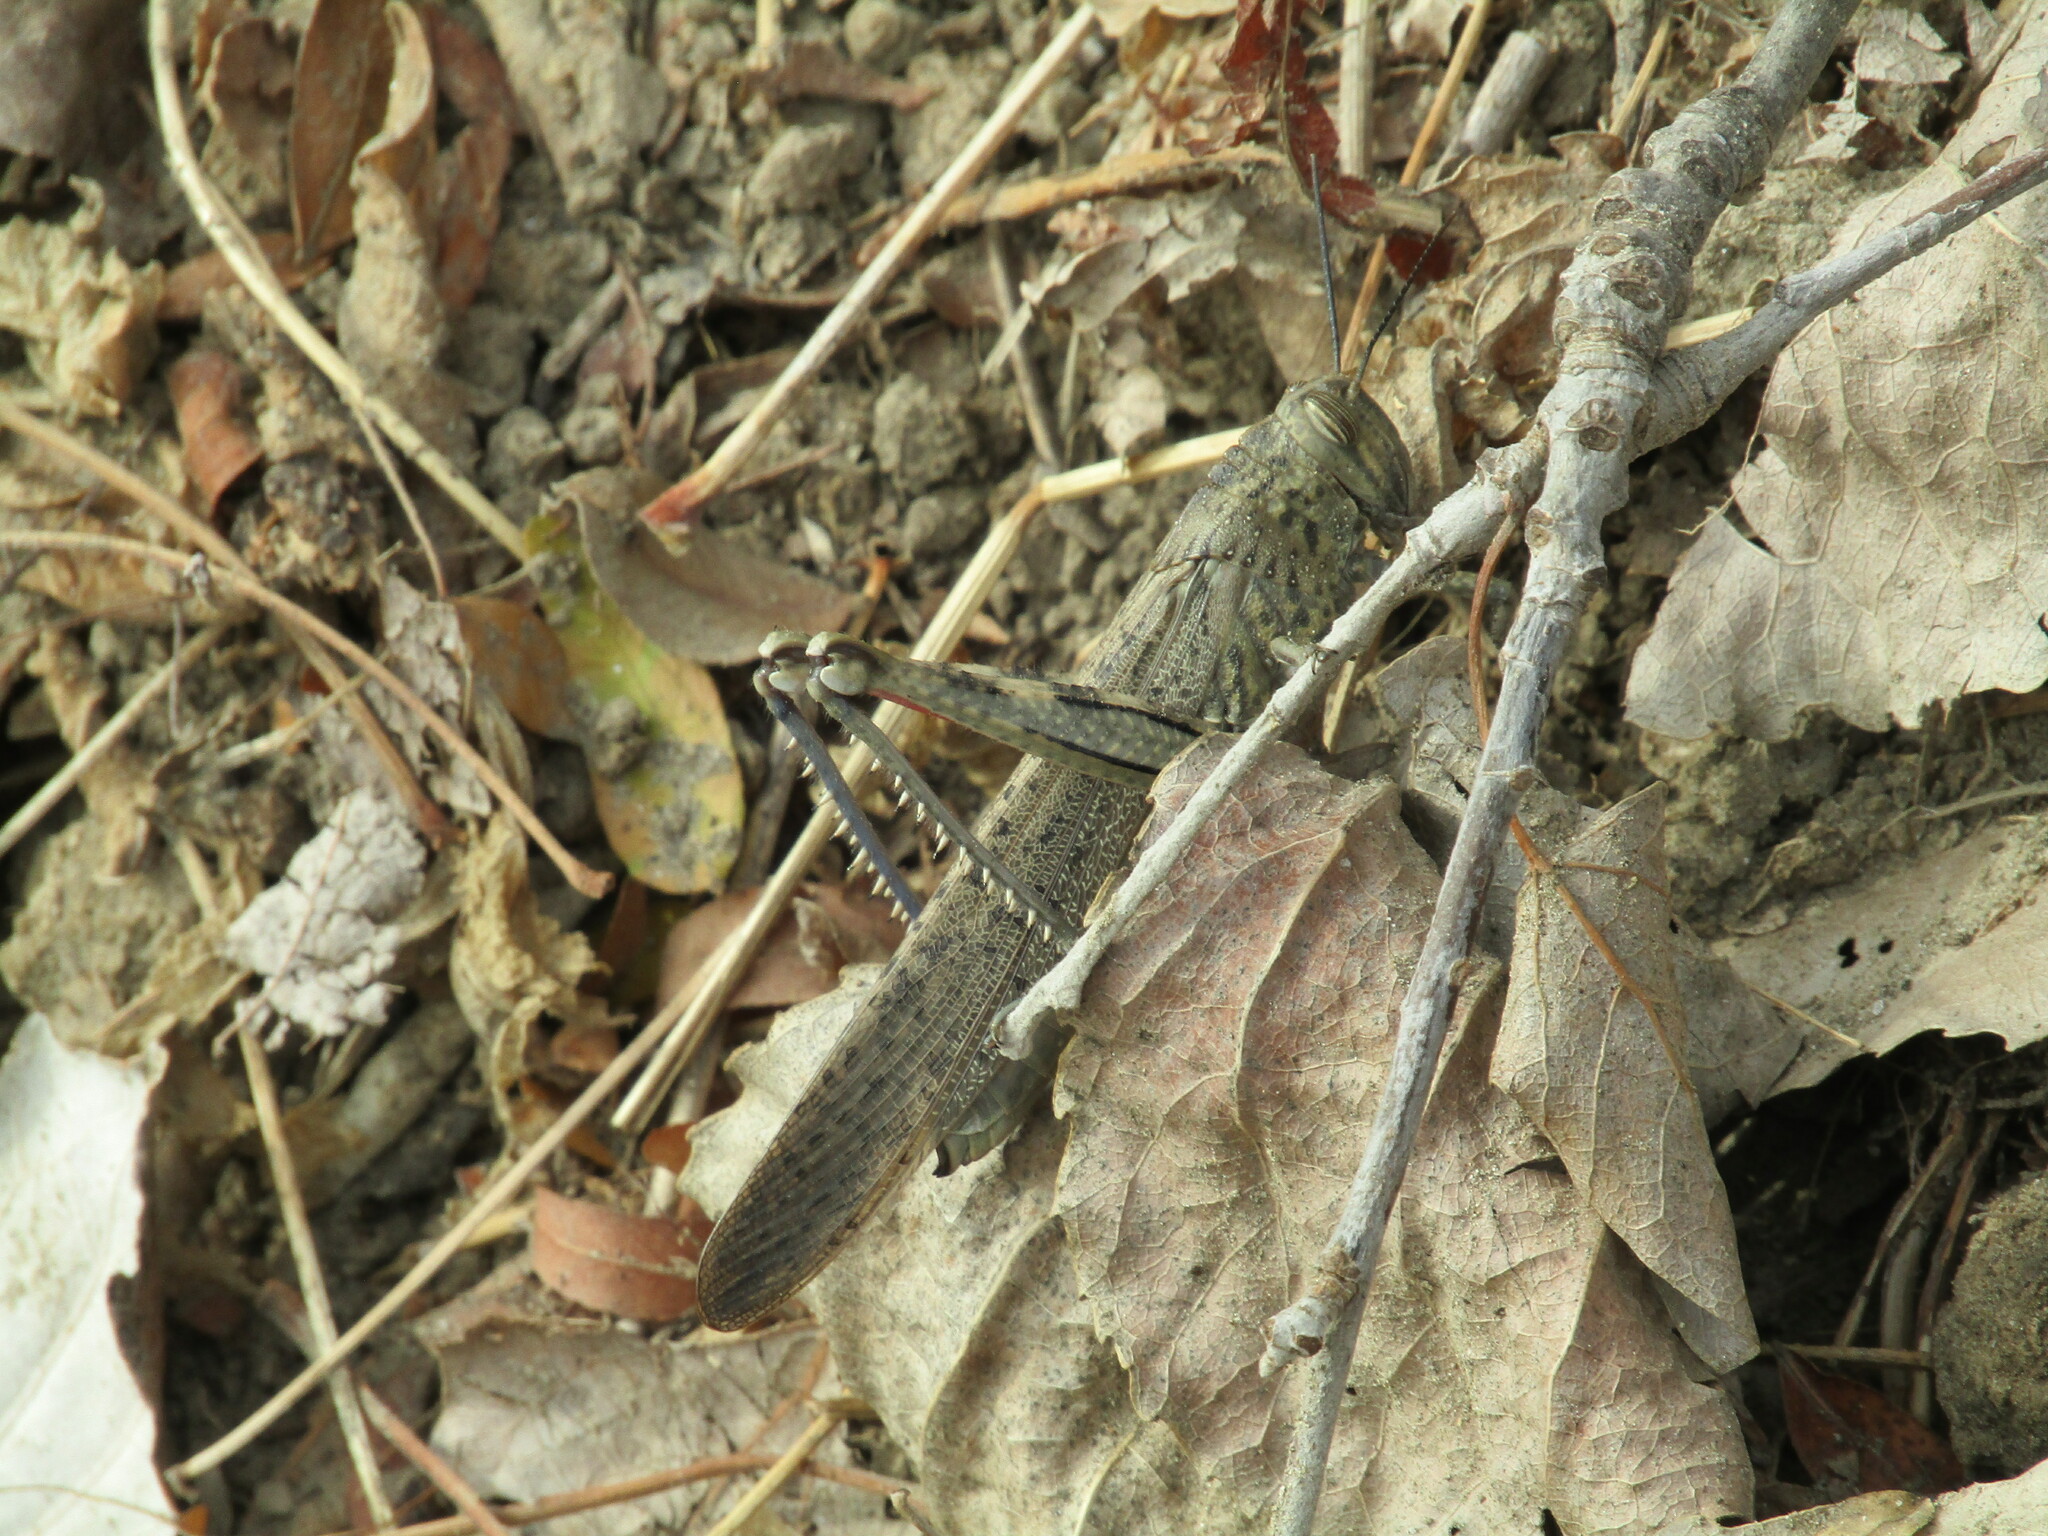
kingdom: Animalia
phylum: Arthropoda
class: Insecta
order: Orthoptera
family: Acrididae
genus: Anacridium
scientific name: Anacridium aegyptium
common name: Egyptian grasshopper
